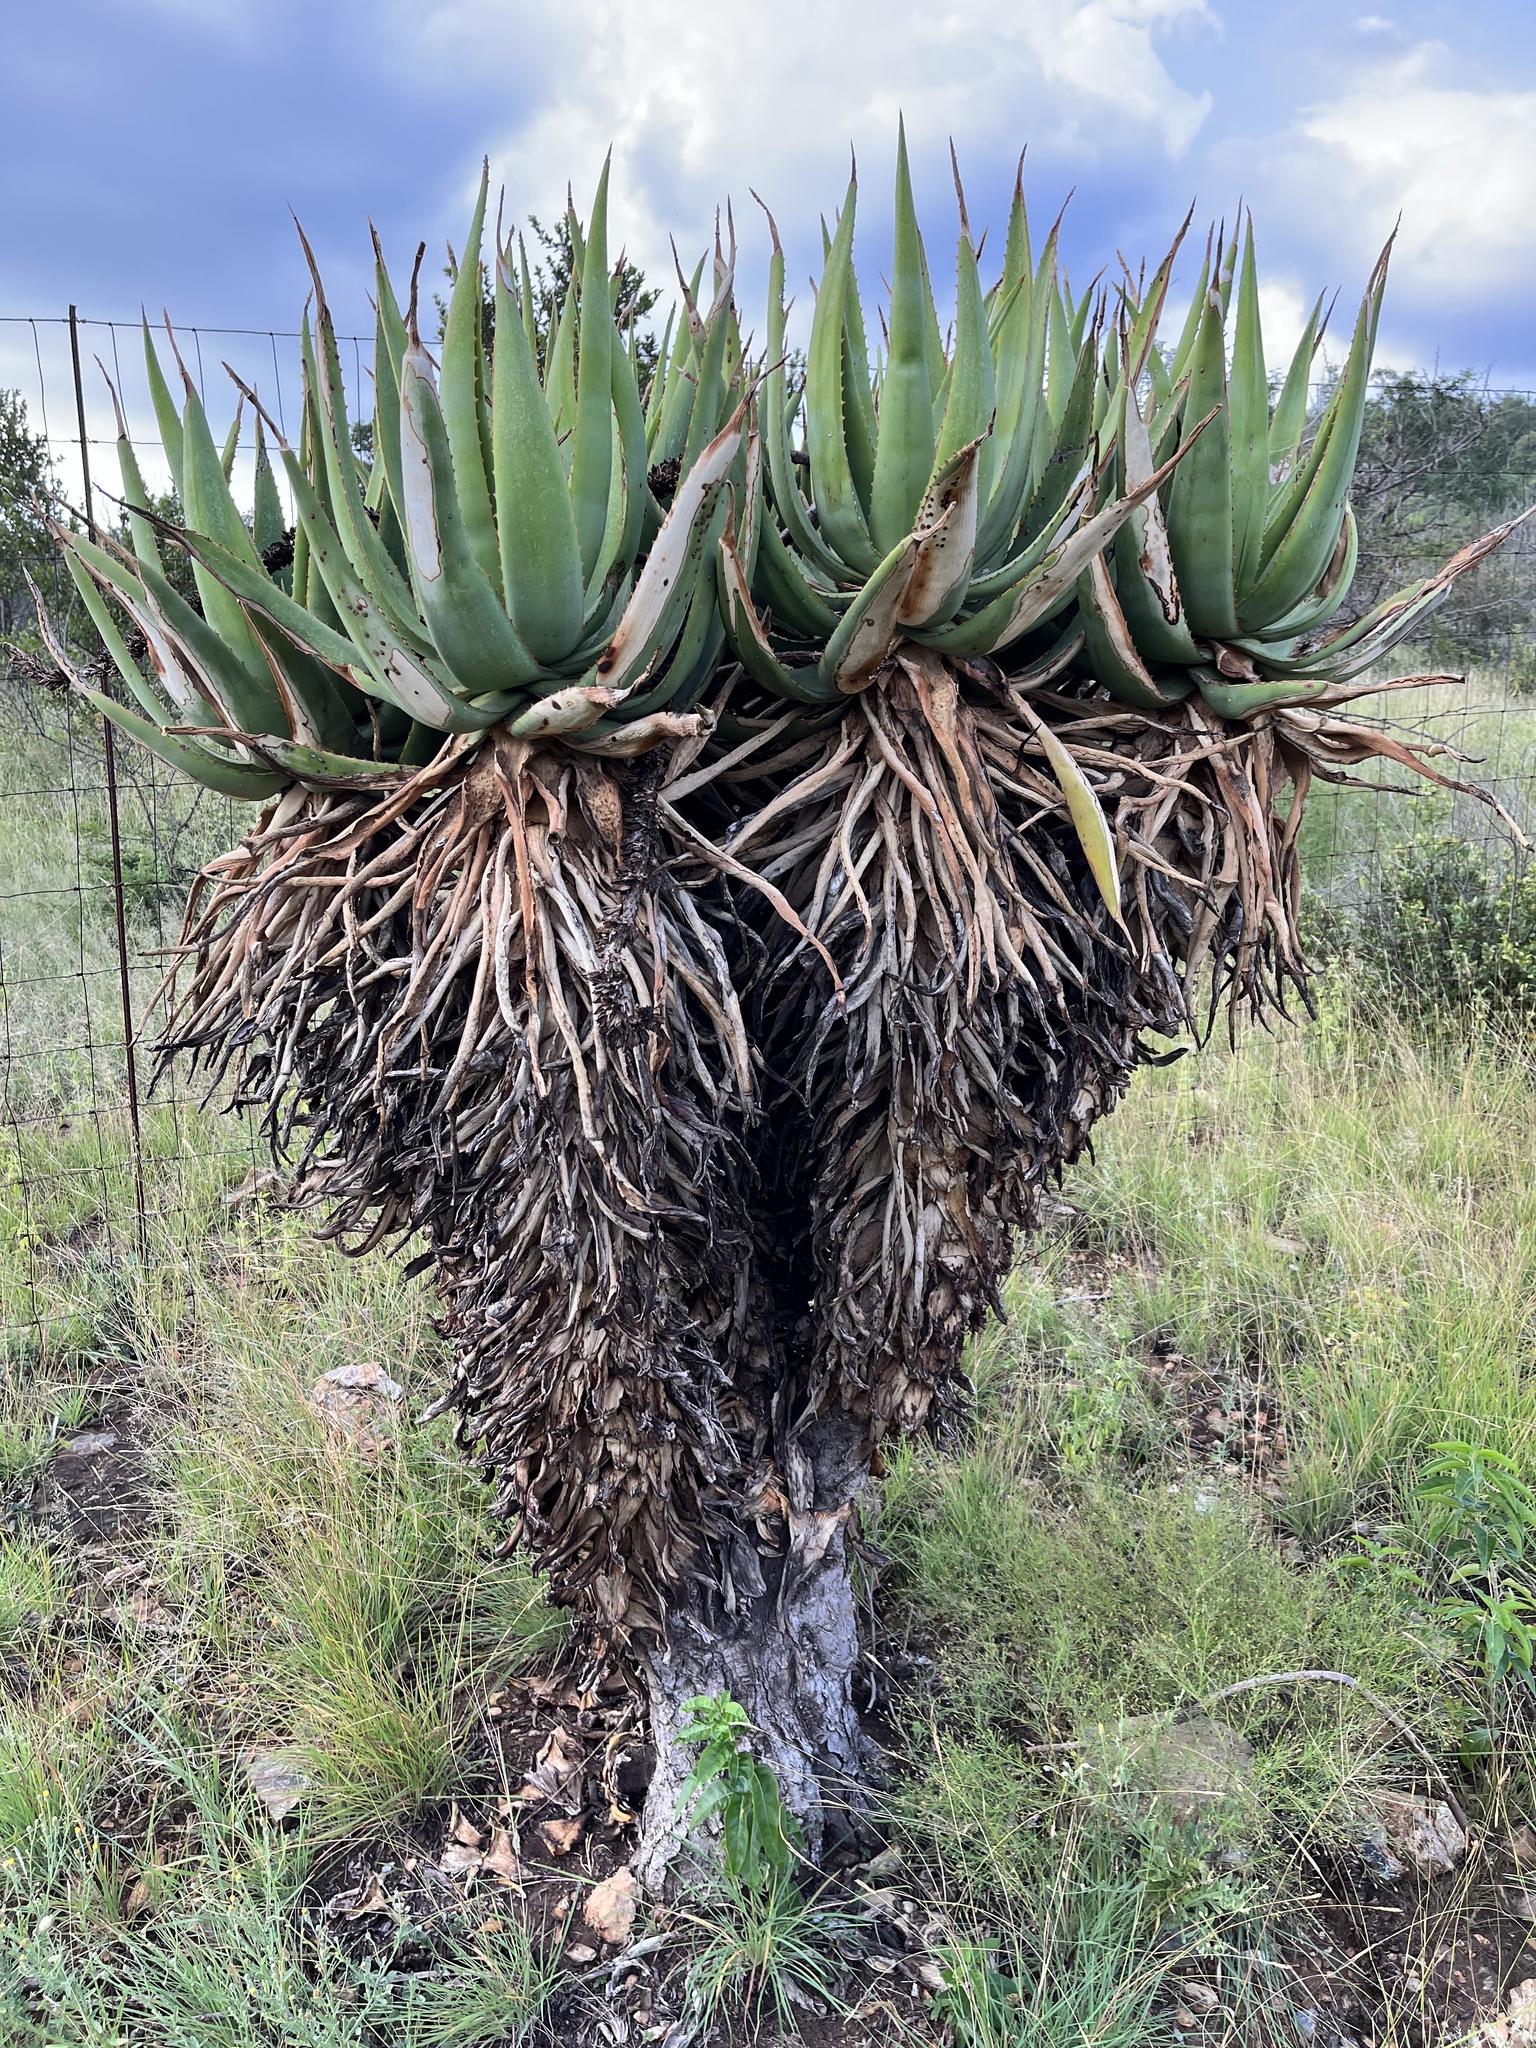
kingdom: Plantae
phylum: Tracheophyta
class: Liliopsida
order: Asparagales
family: Asphodelaceae
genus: Aloe
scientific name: Aloe castanea
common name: Cat's-tail aloe
